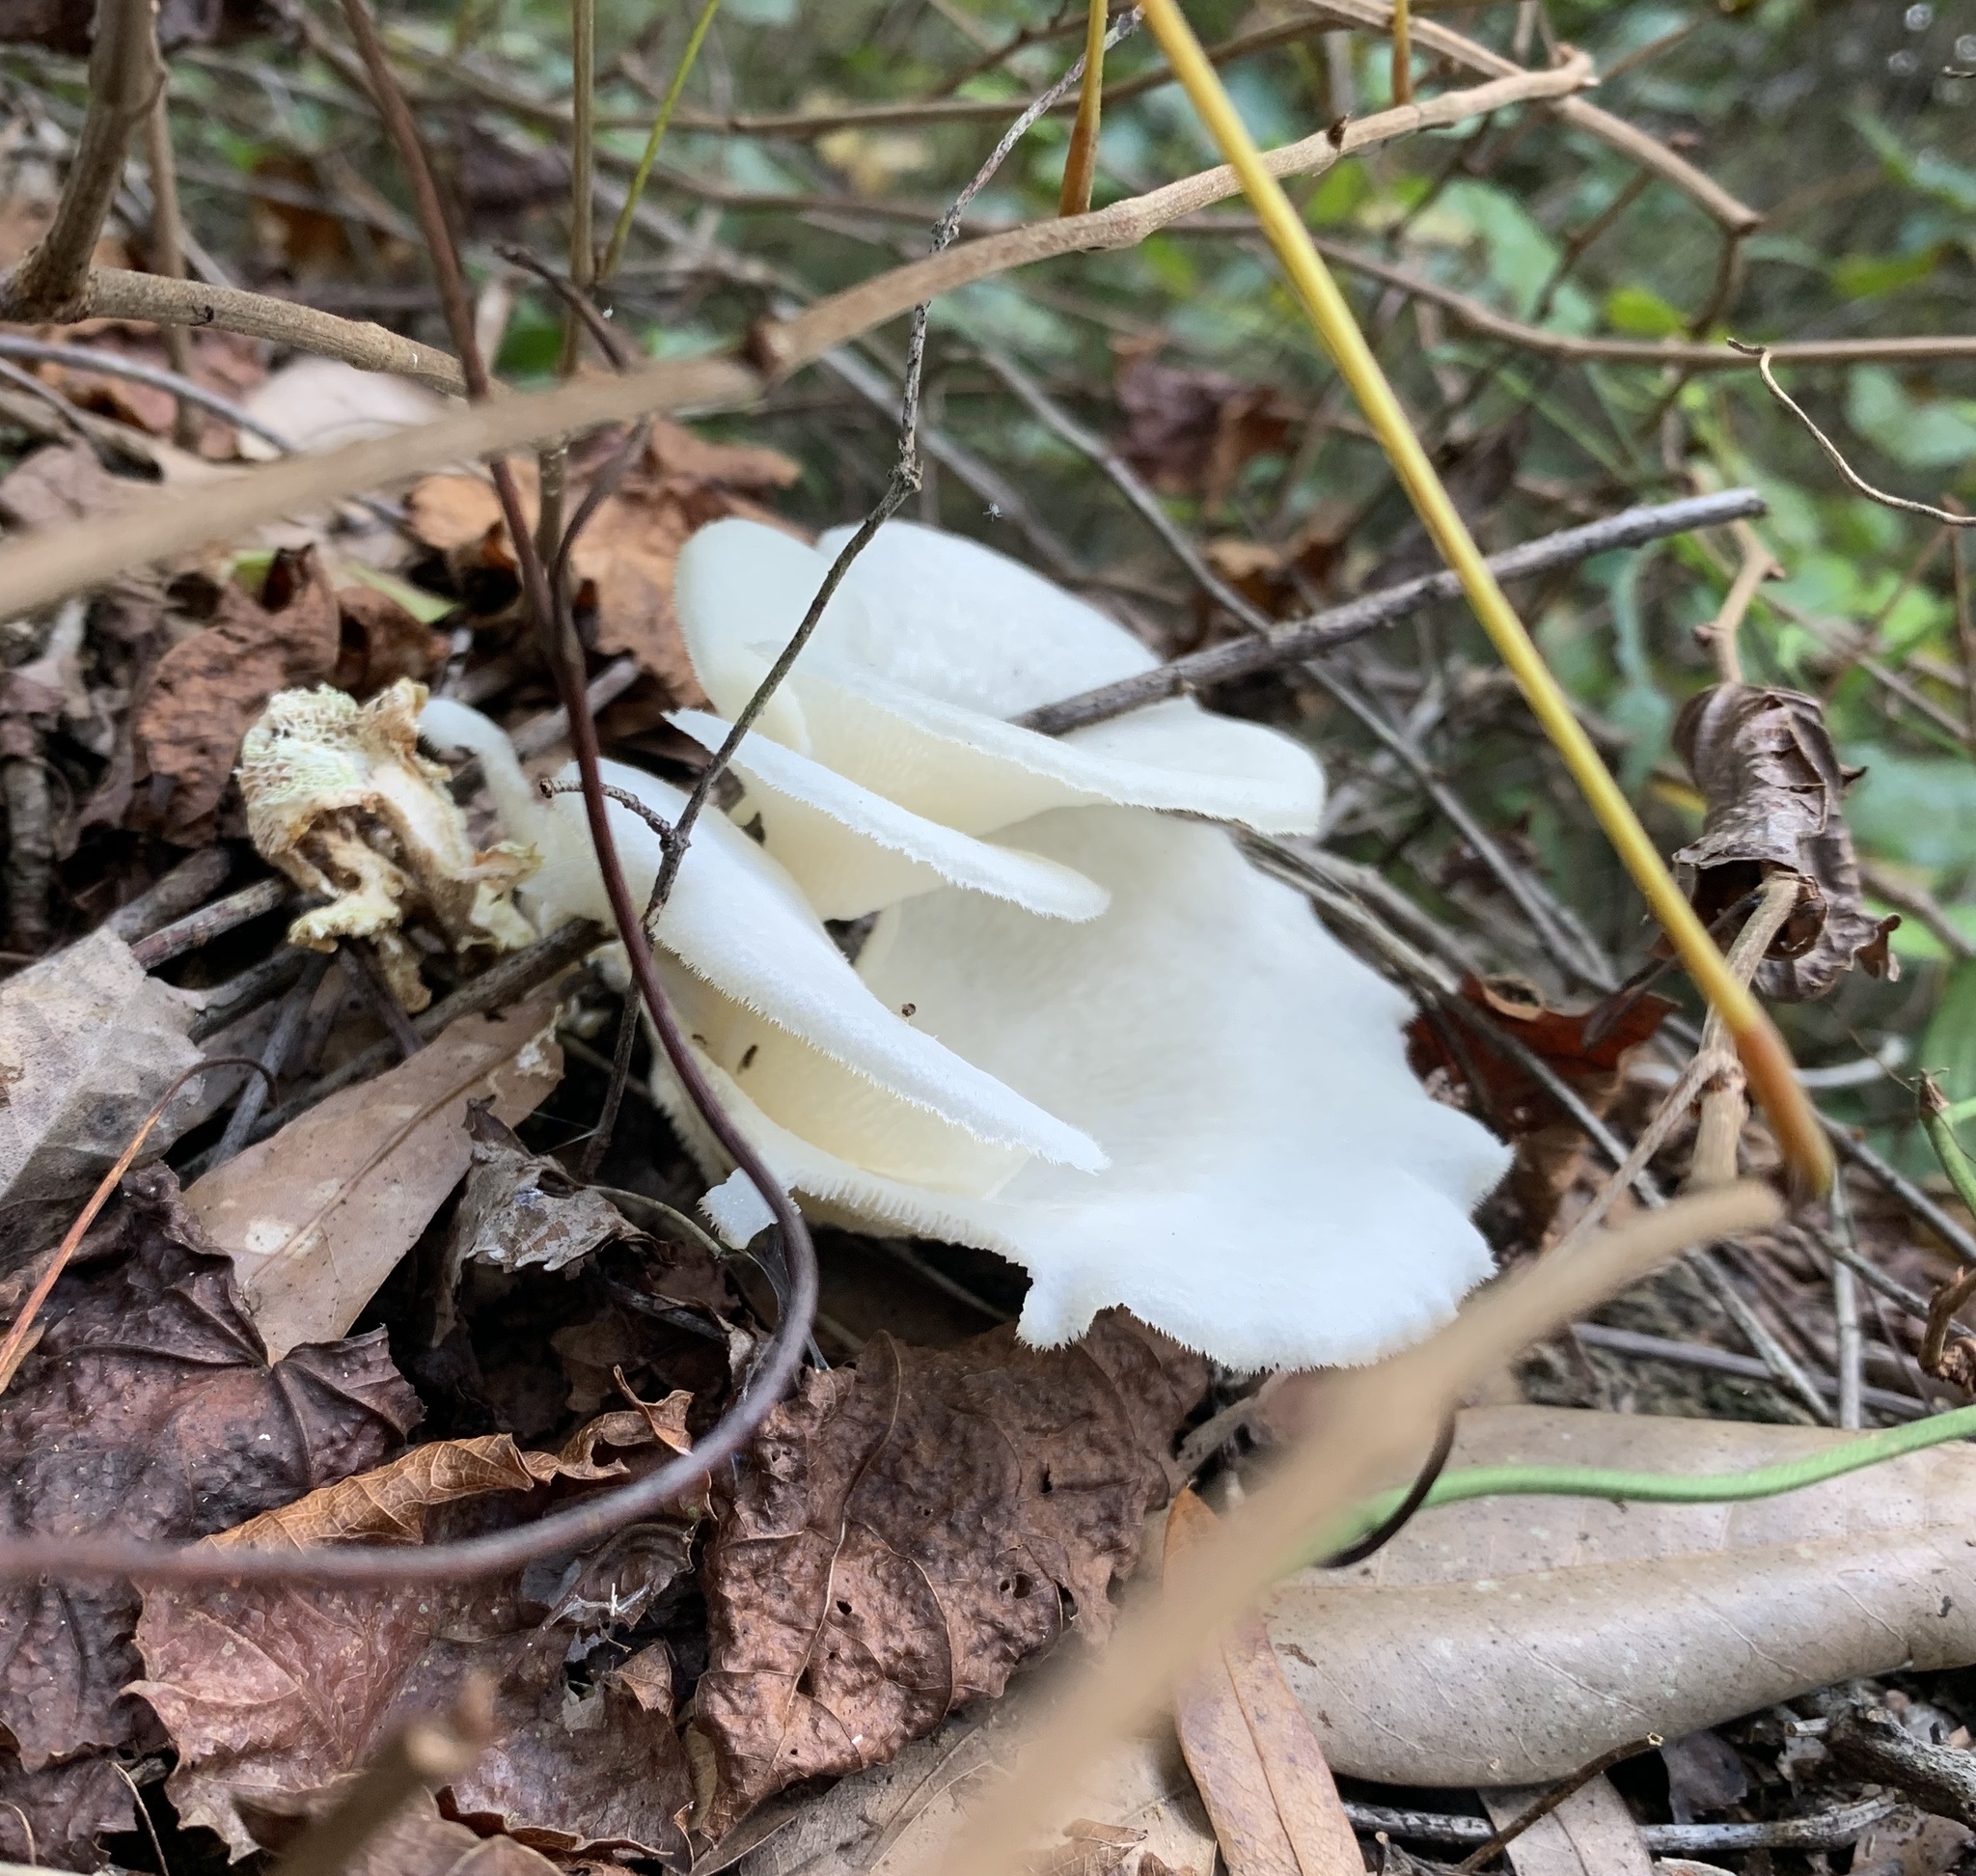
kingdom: Fungi
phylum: Basidiomycota
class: Agaricomycetes
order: Polyporales
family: Polyporaceae
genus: Favolus
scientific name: Favolus tenuiculus
